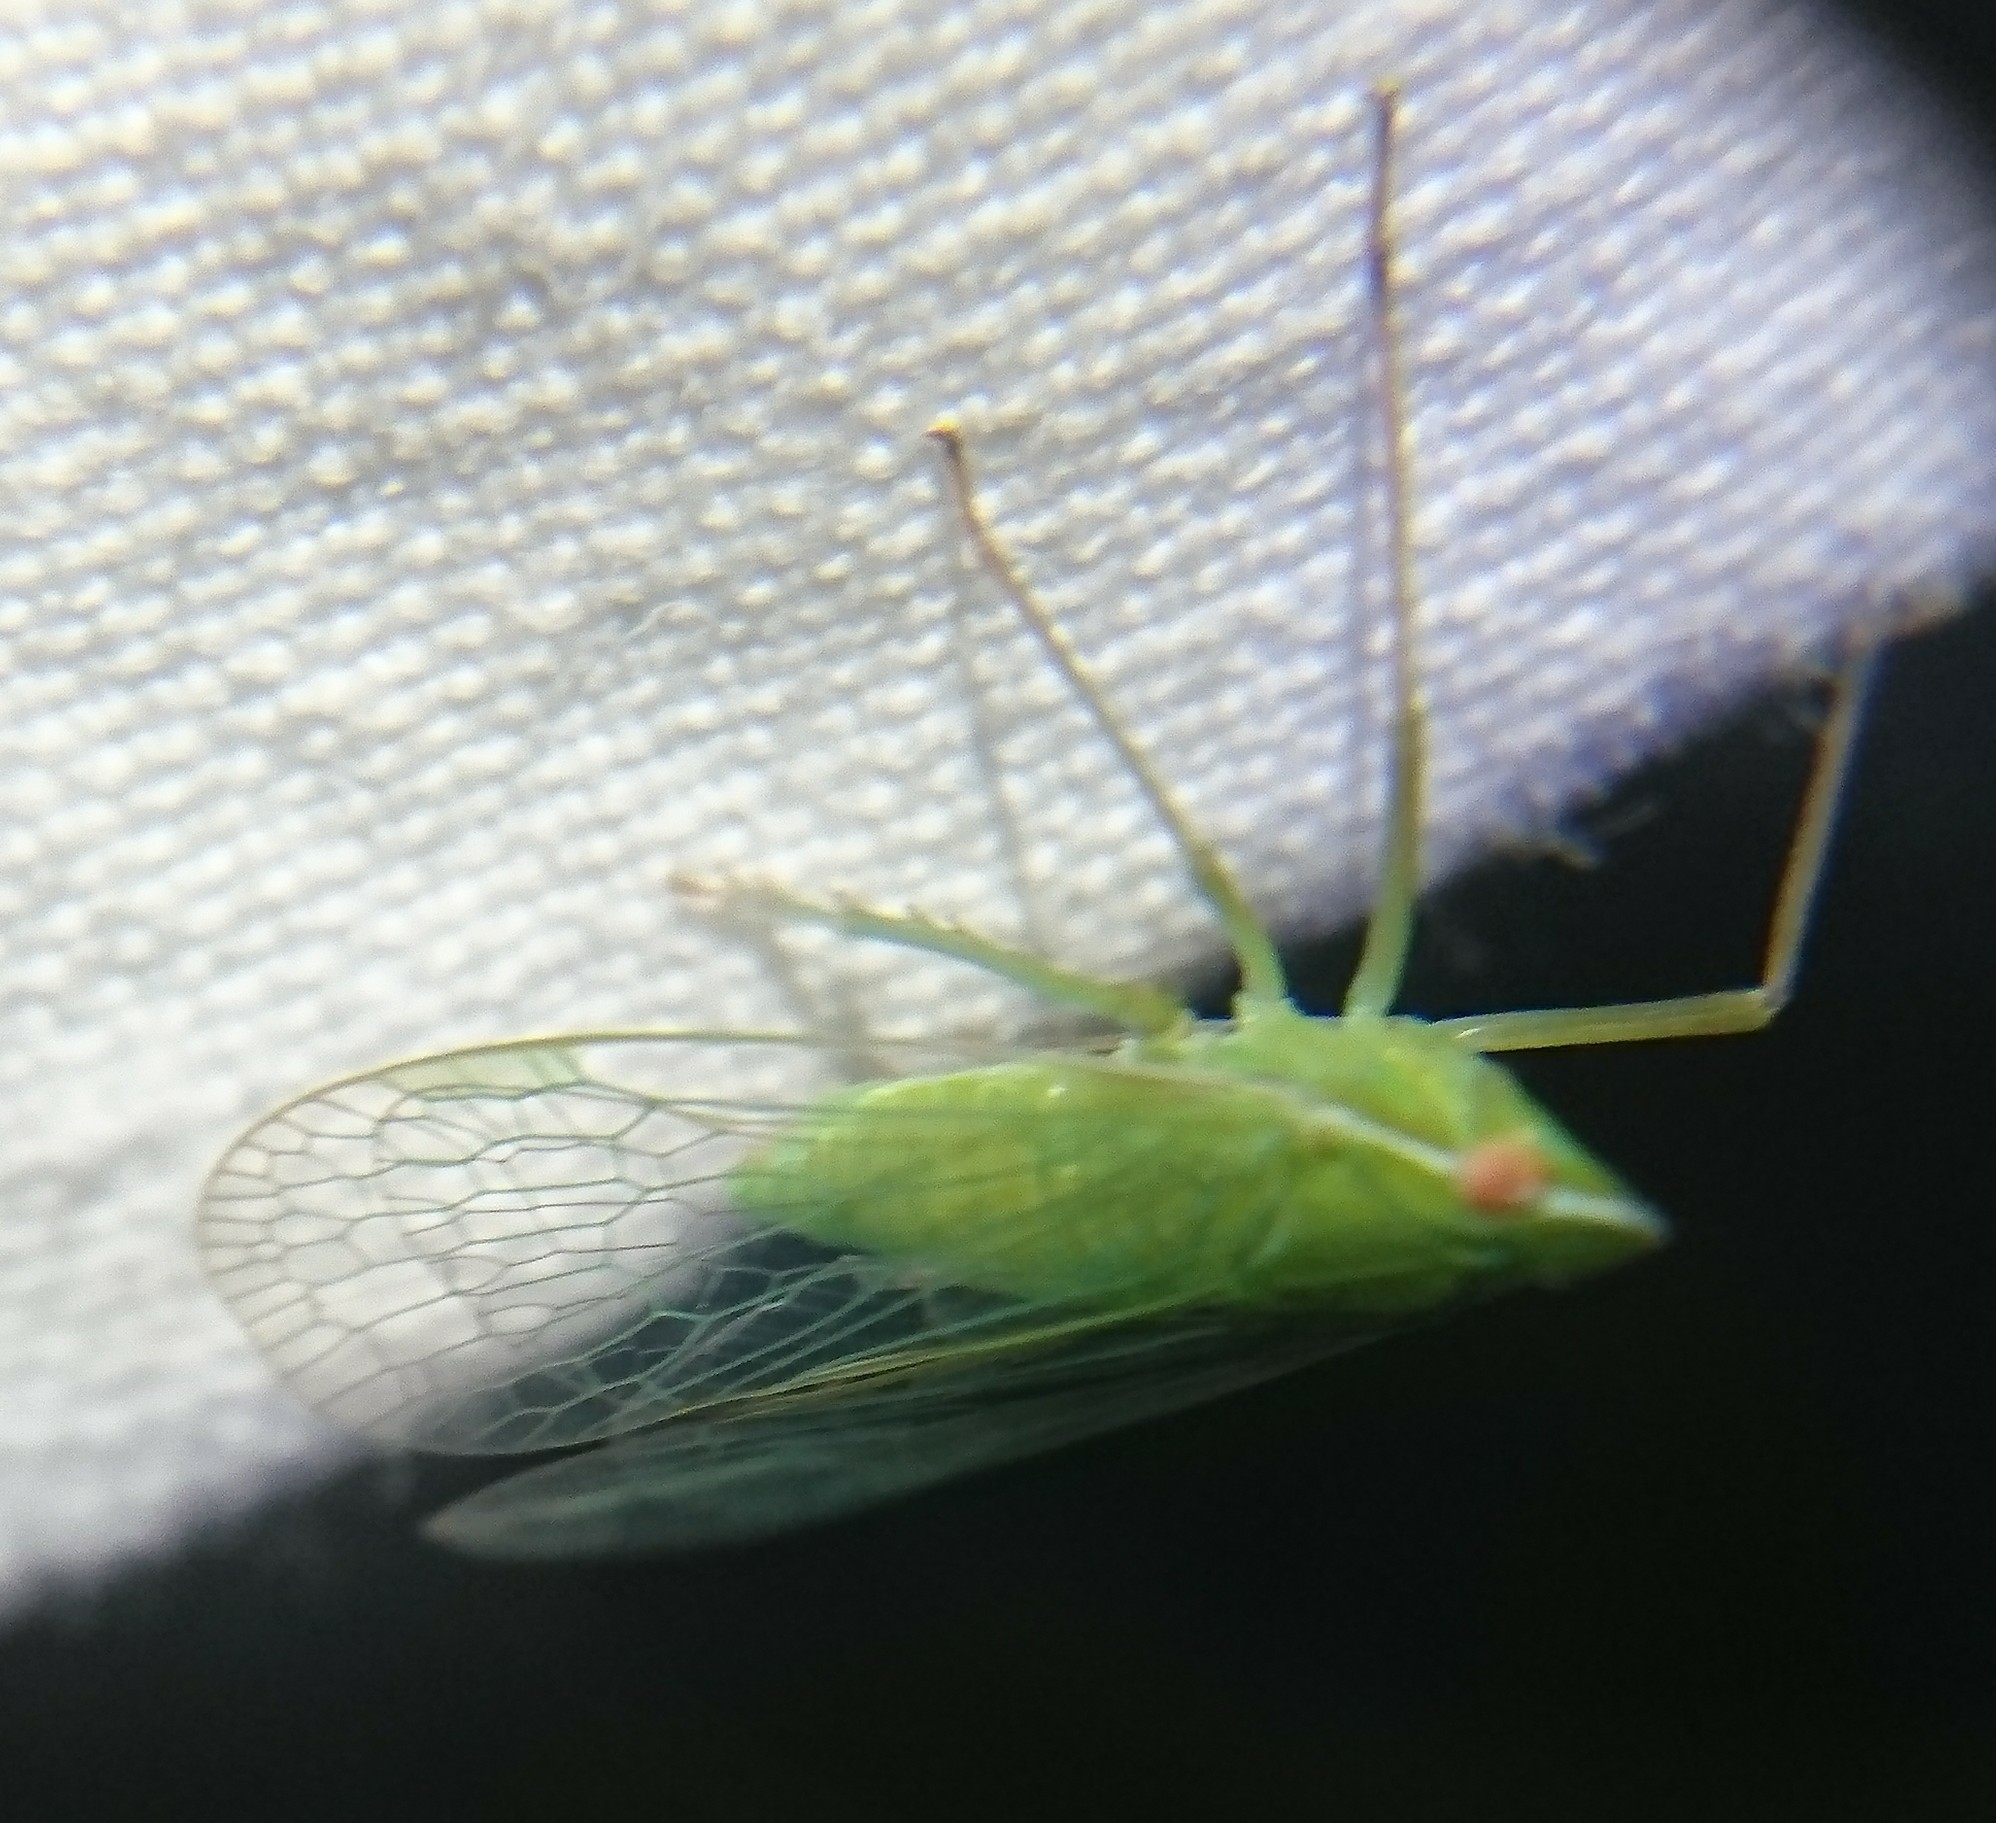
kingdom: Animalia
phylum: Arthropoda
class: Insecta
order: Hemiptera
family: Dictyopharidae
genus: Nersia
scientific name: Nersia florida
